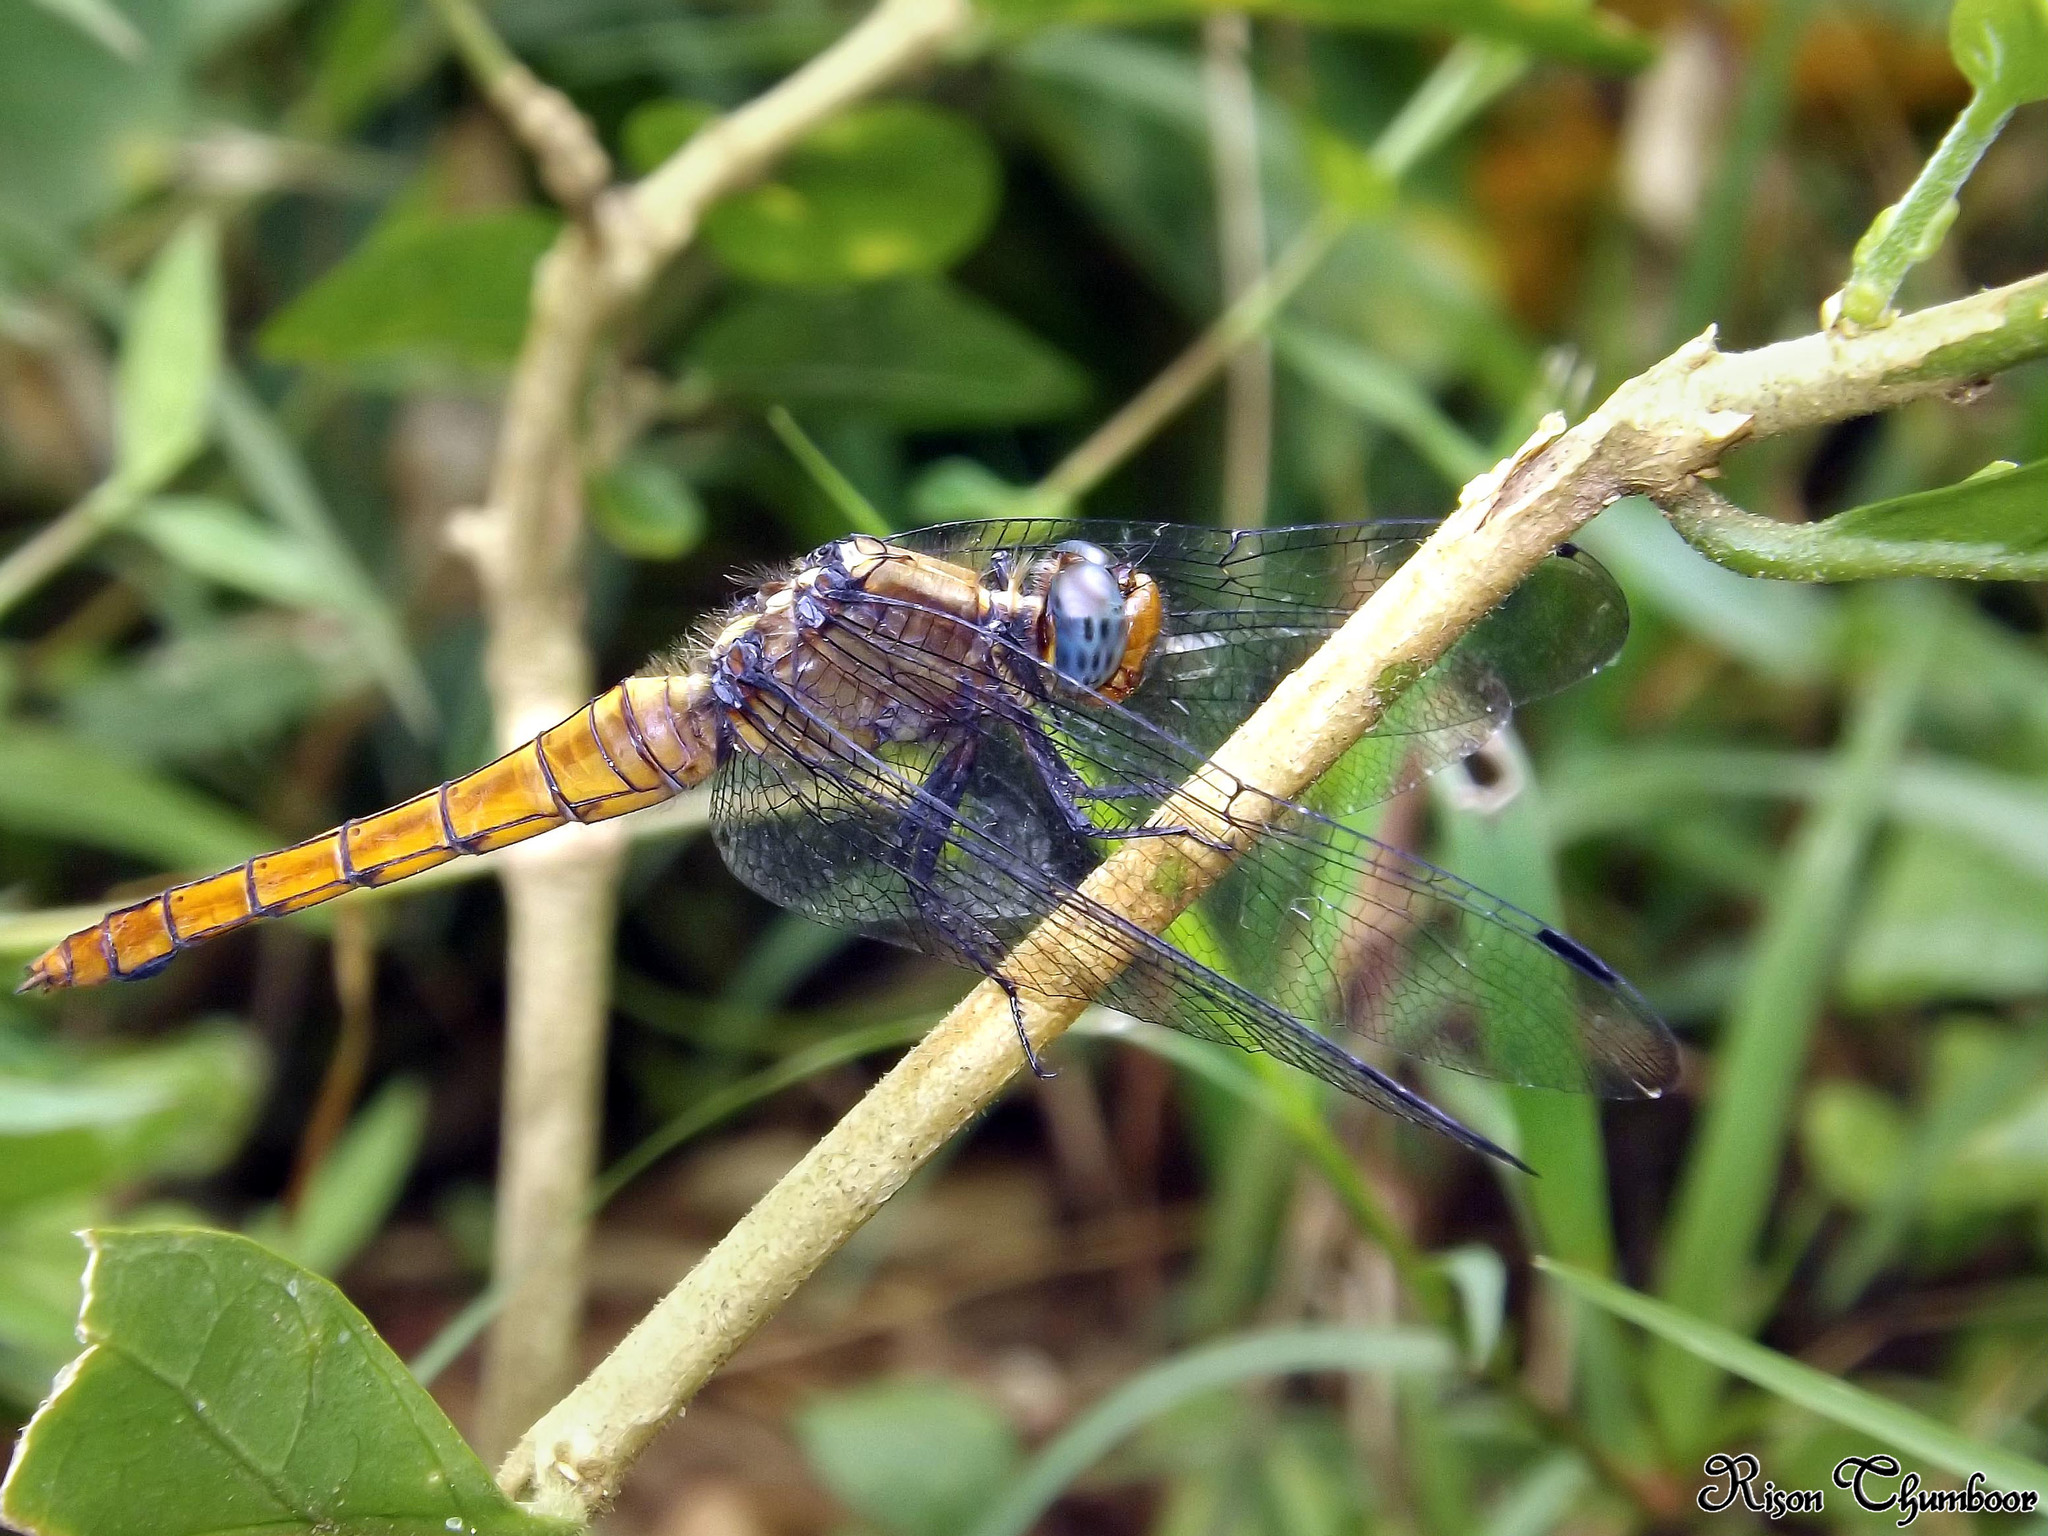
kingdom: Animalia
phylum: Arthropoda
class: Insecta
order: Odonata
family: Libellulidae
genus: Orthetrum
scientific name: Orthetrum pruinosum
